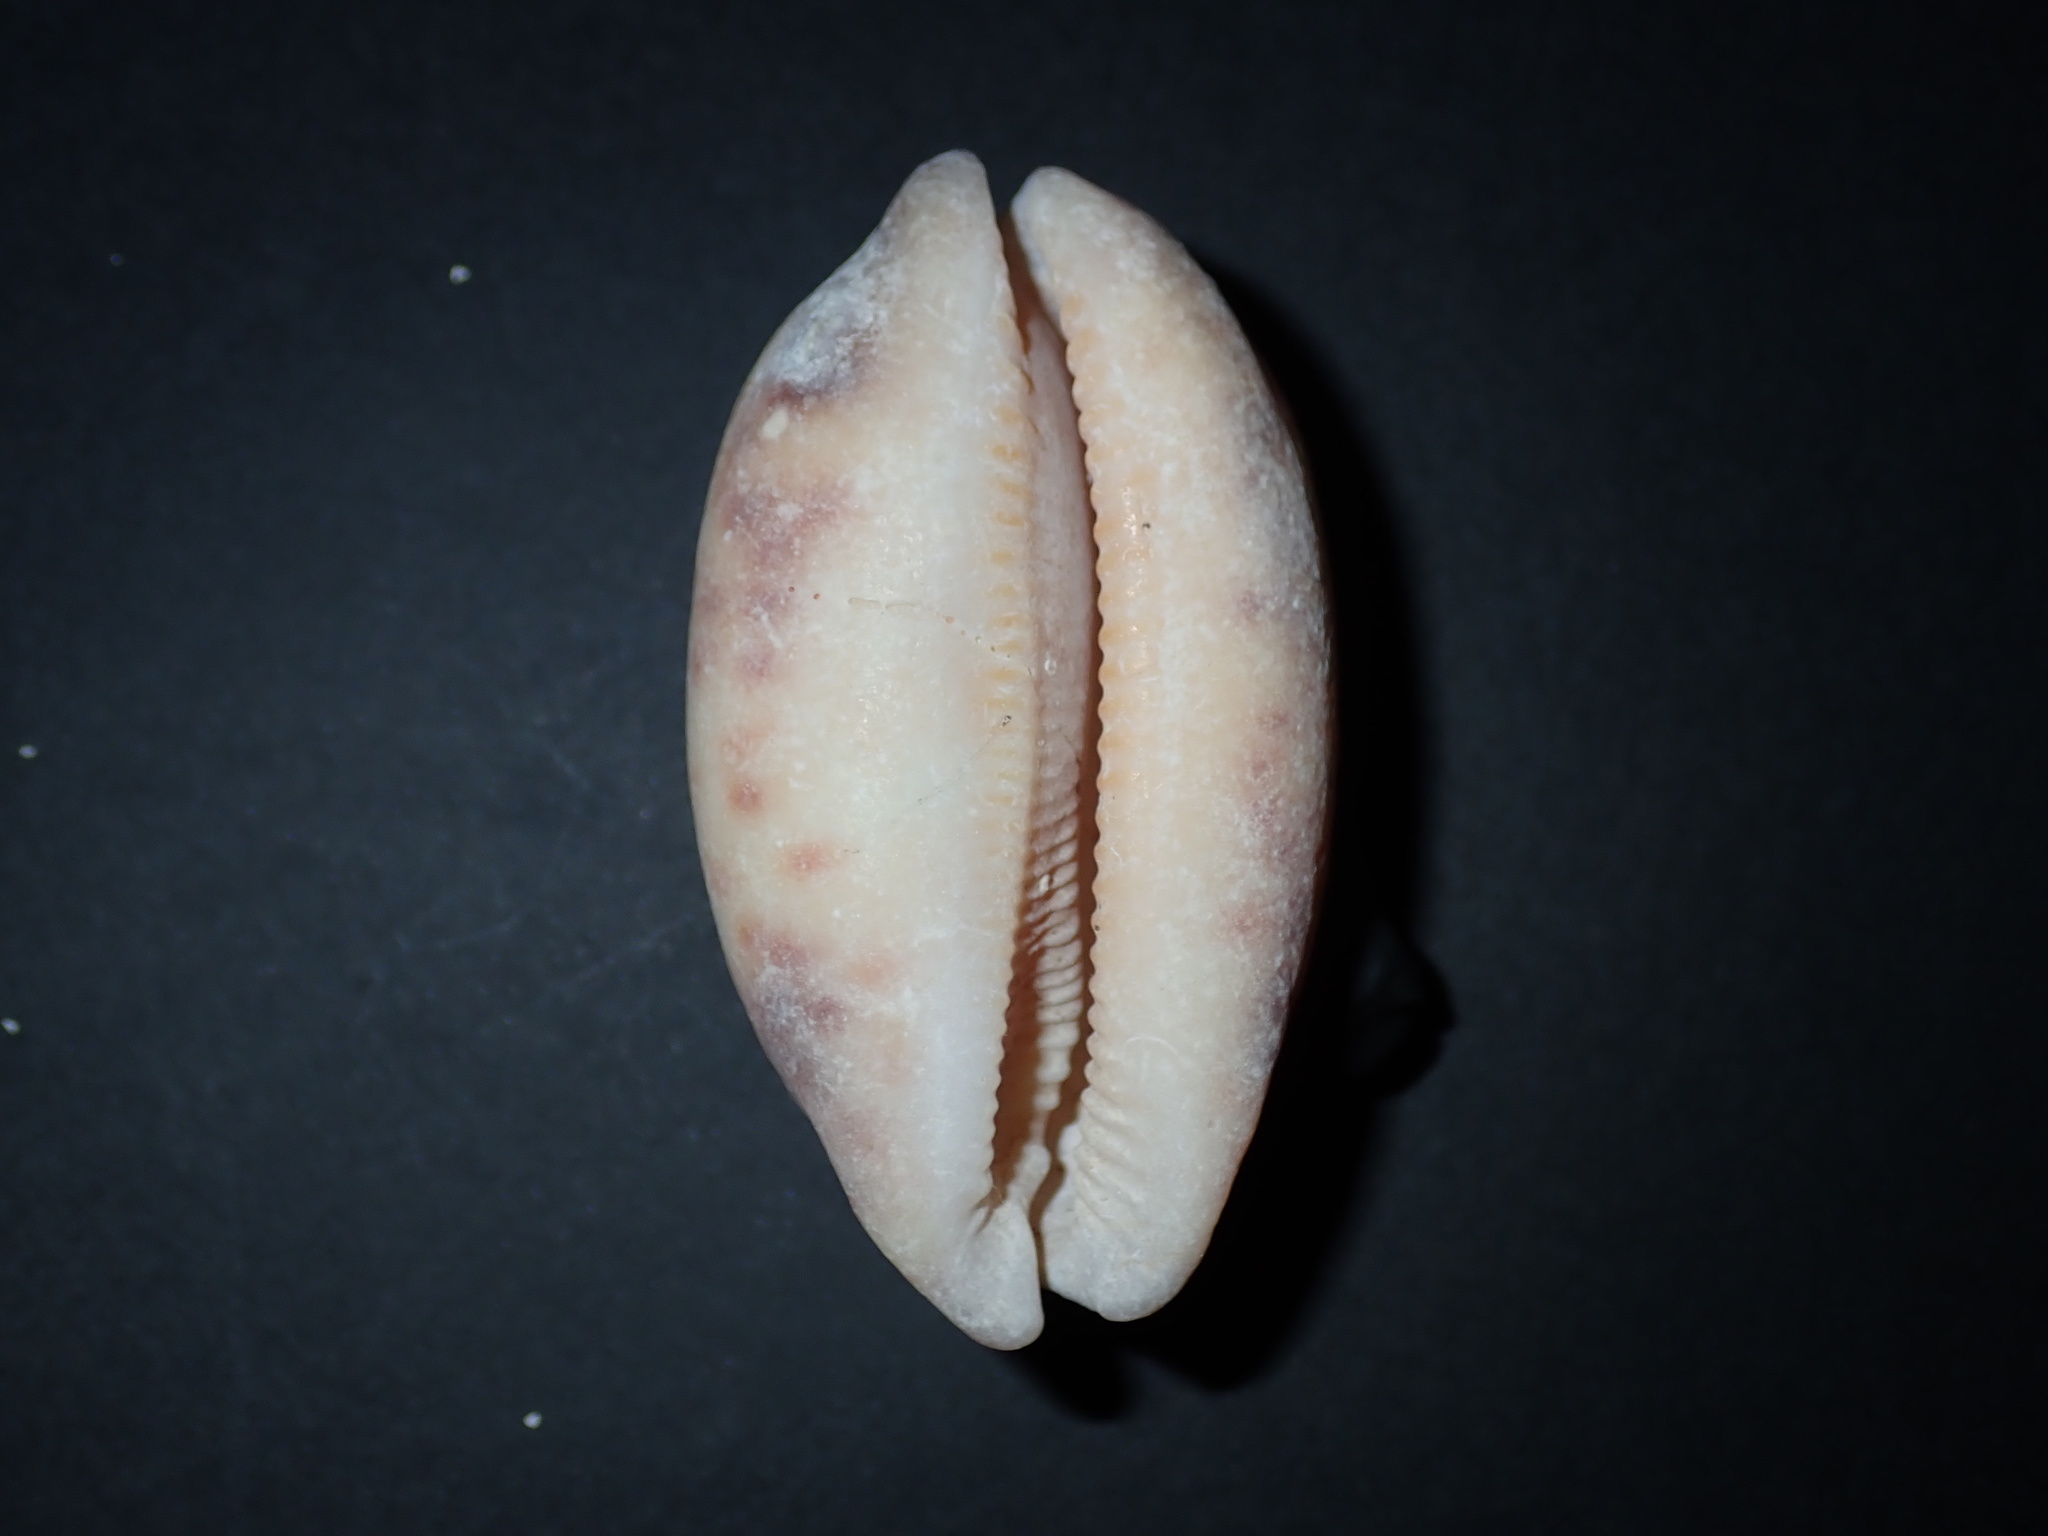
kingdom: Animalia
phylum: Mollusca
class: Gastropoda
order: Littorinimorpha
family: Cypraeidae
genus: Mauritia
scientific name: Mauritia eglantina
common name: Dog-rose cowrie
